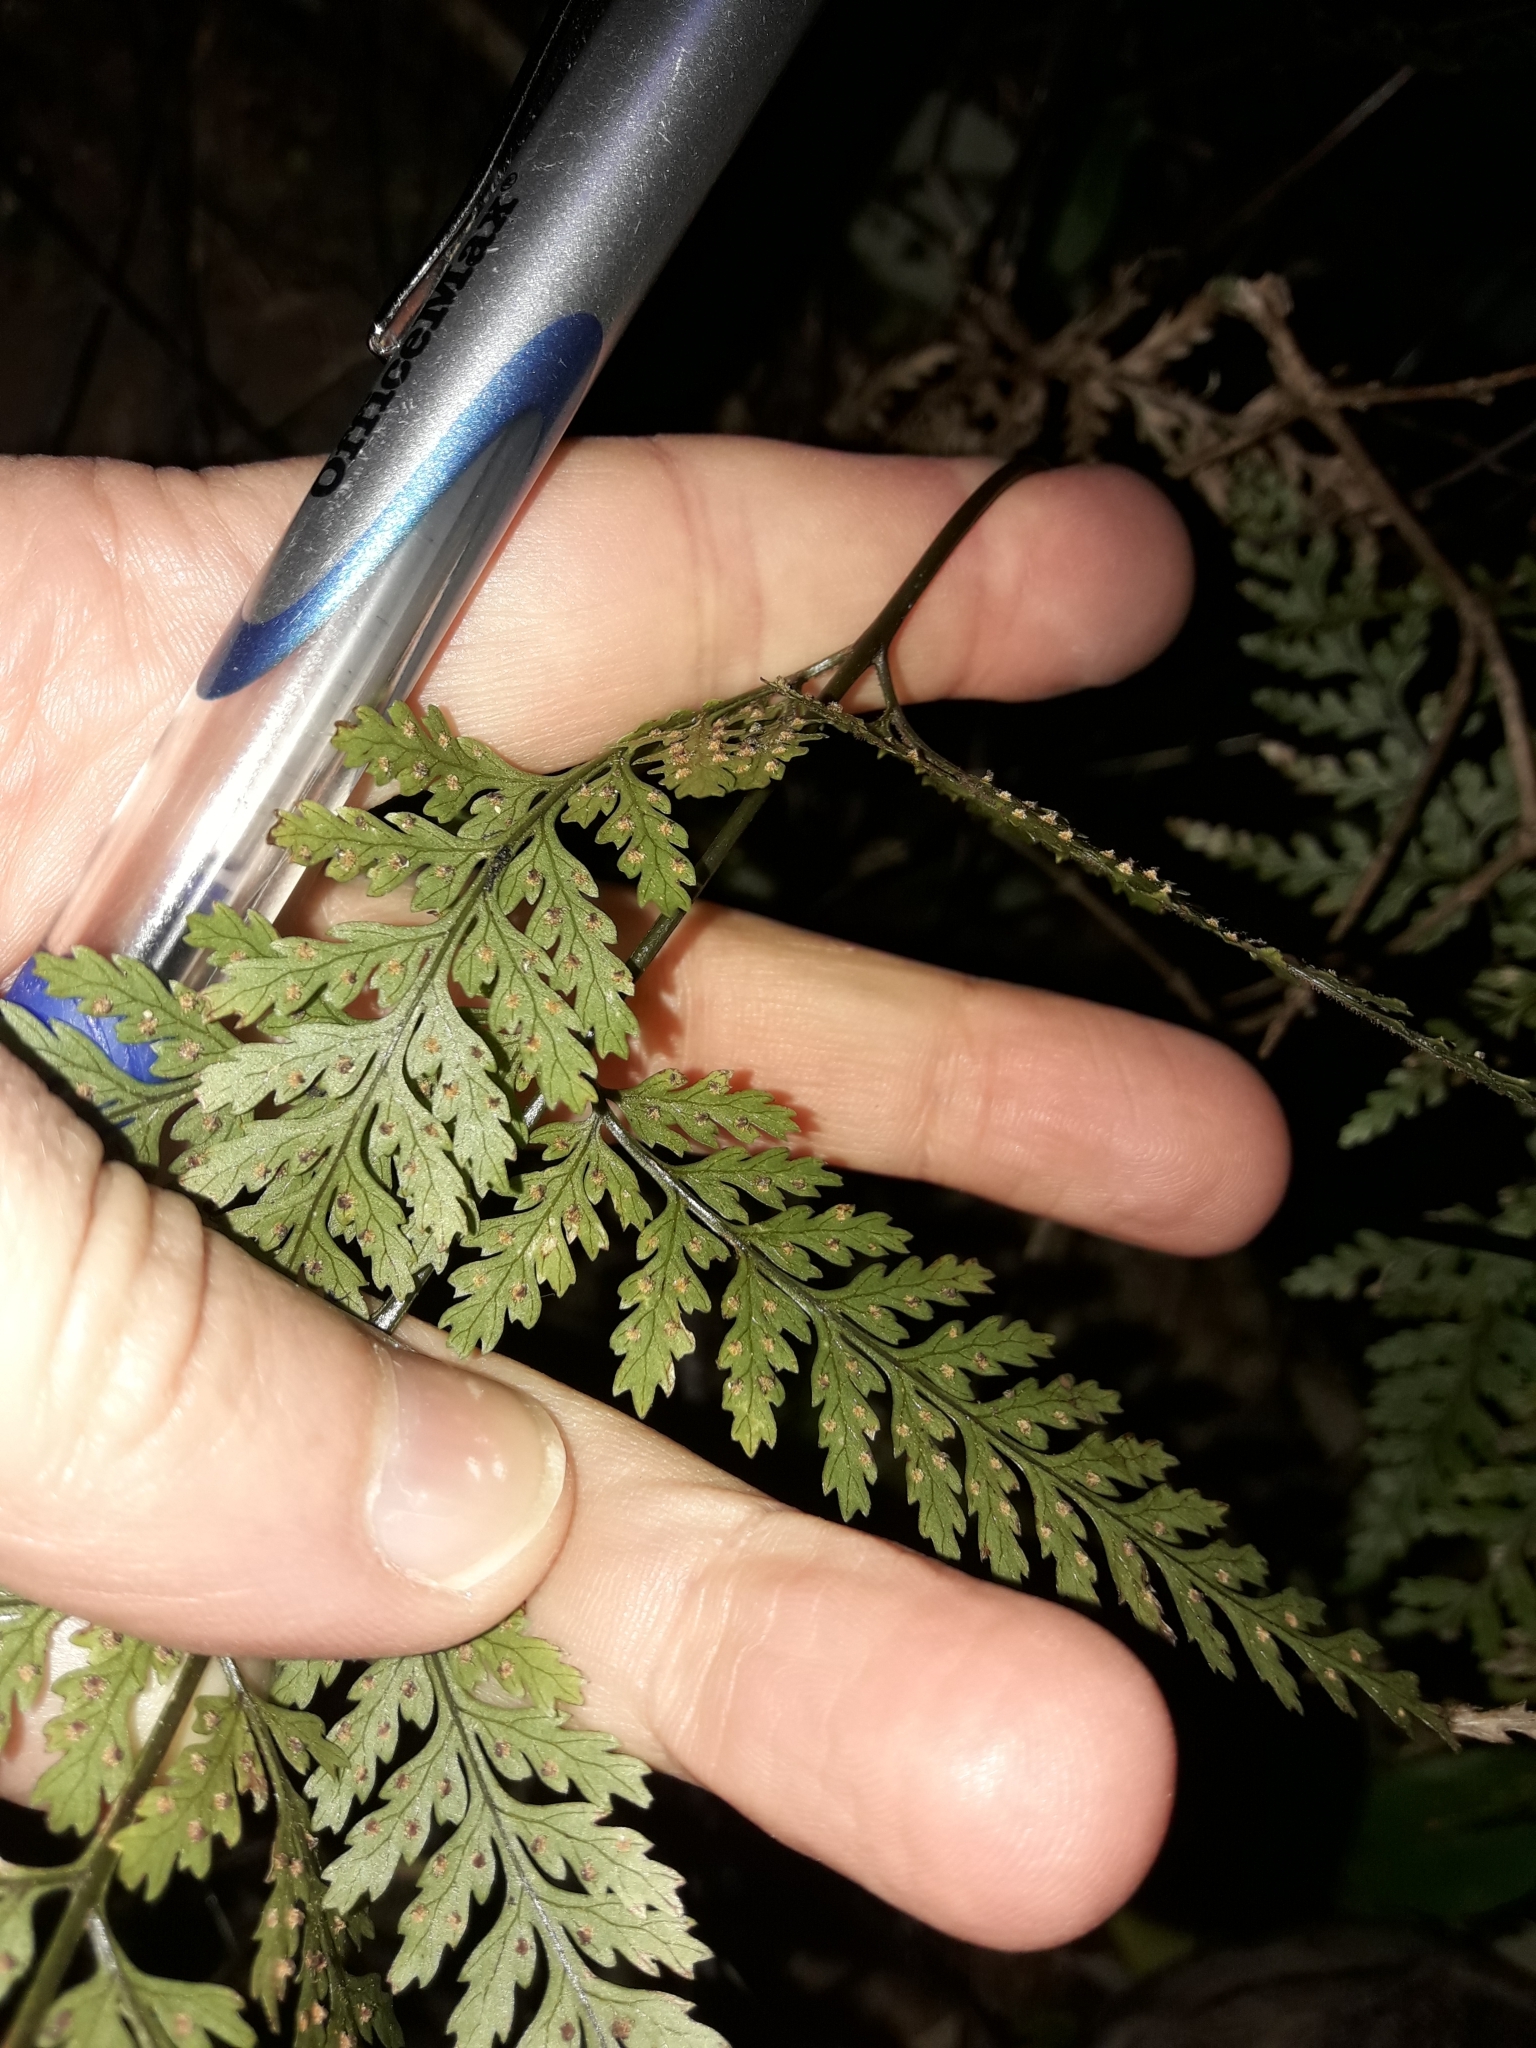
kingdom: Plantae
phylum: Tracheophyta
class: Polypodiopsida
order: Polypodiales
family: Dryopteridaceae
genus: Parapolystichum
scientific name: Parapolystichum glabellum
